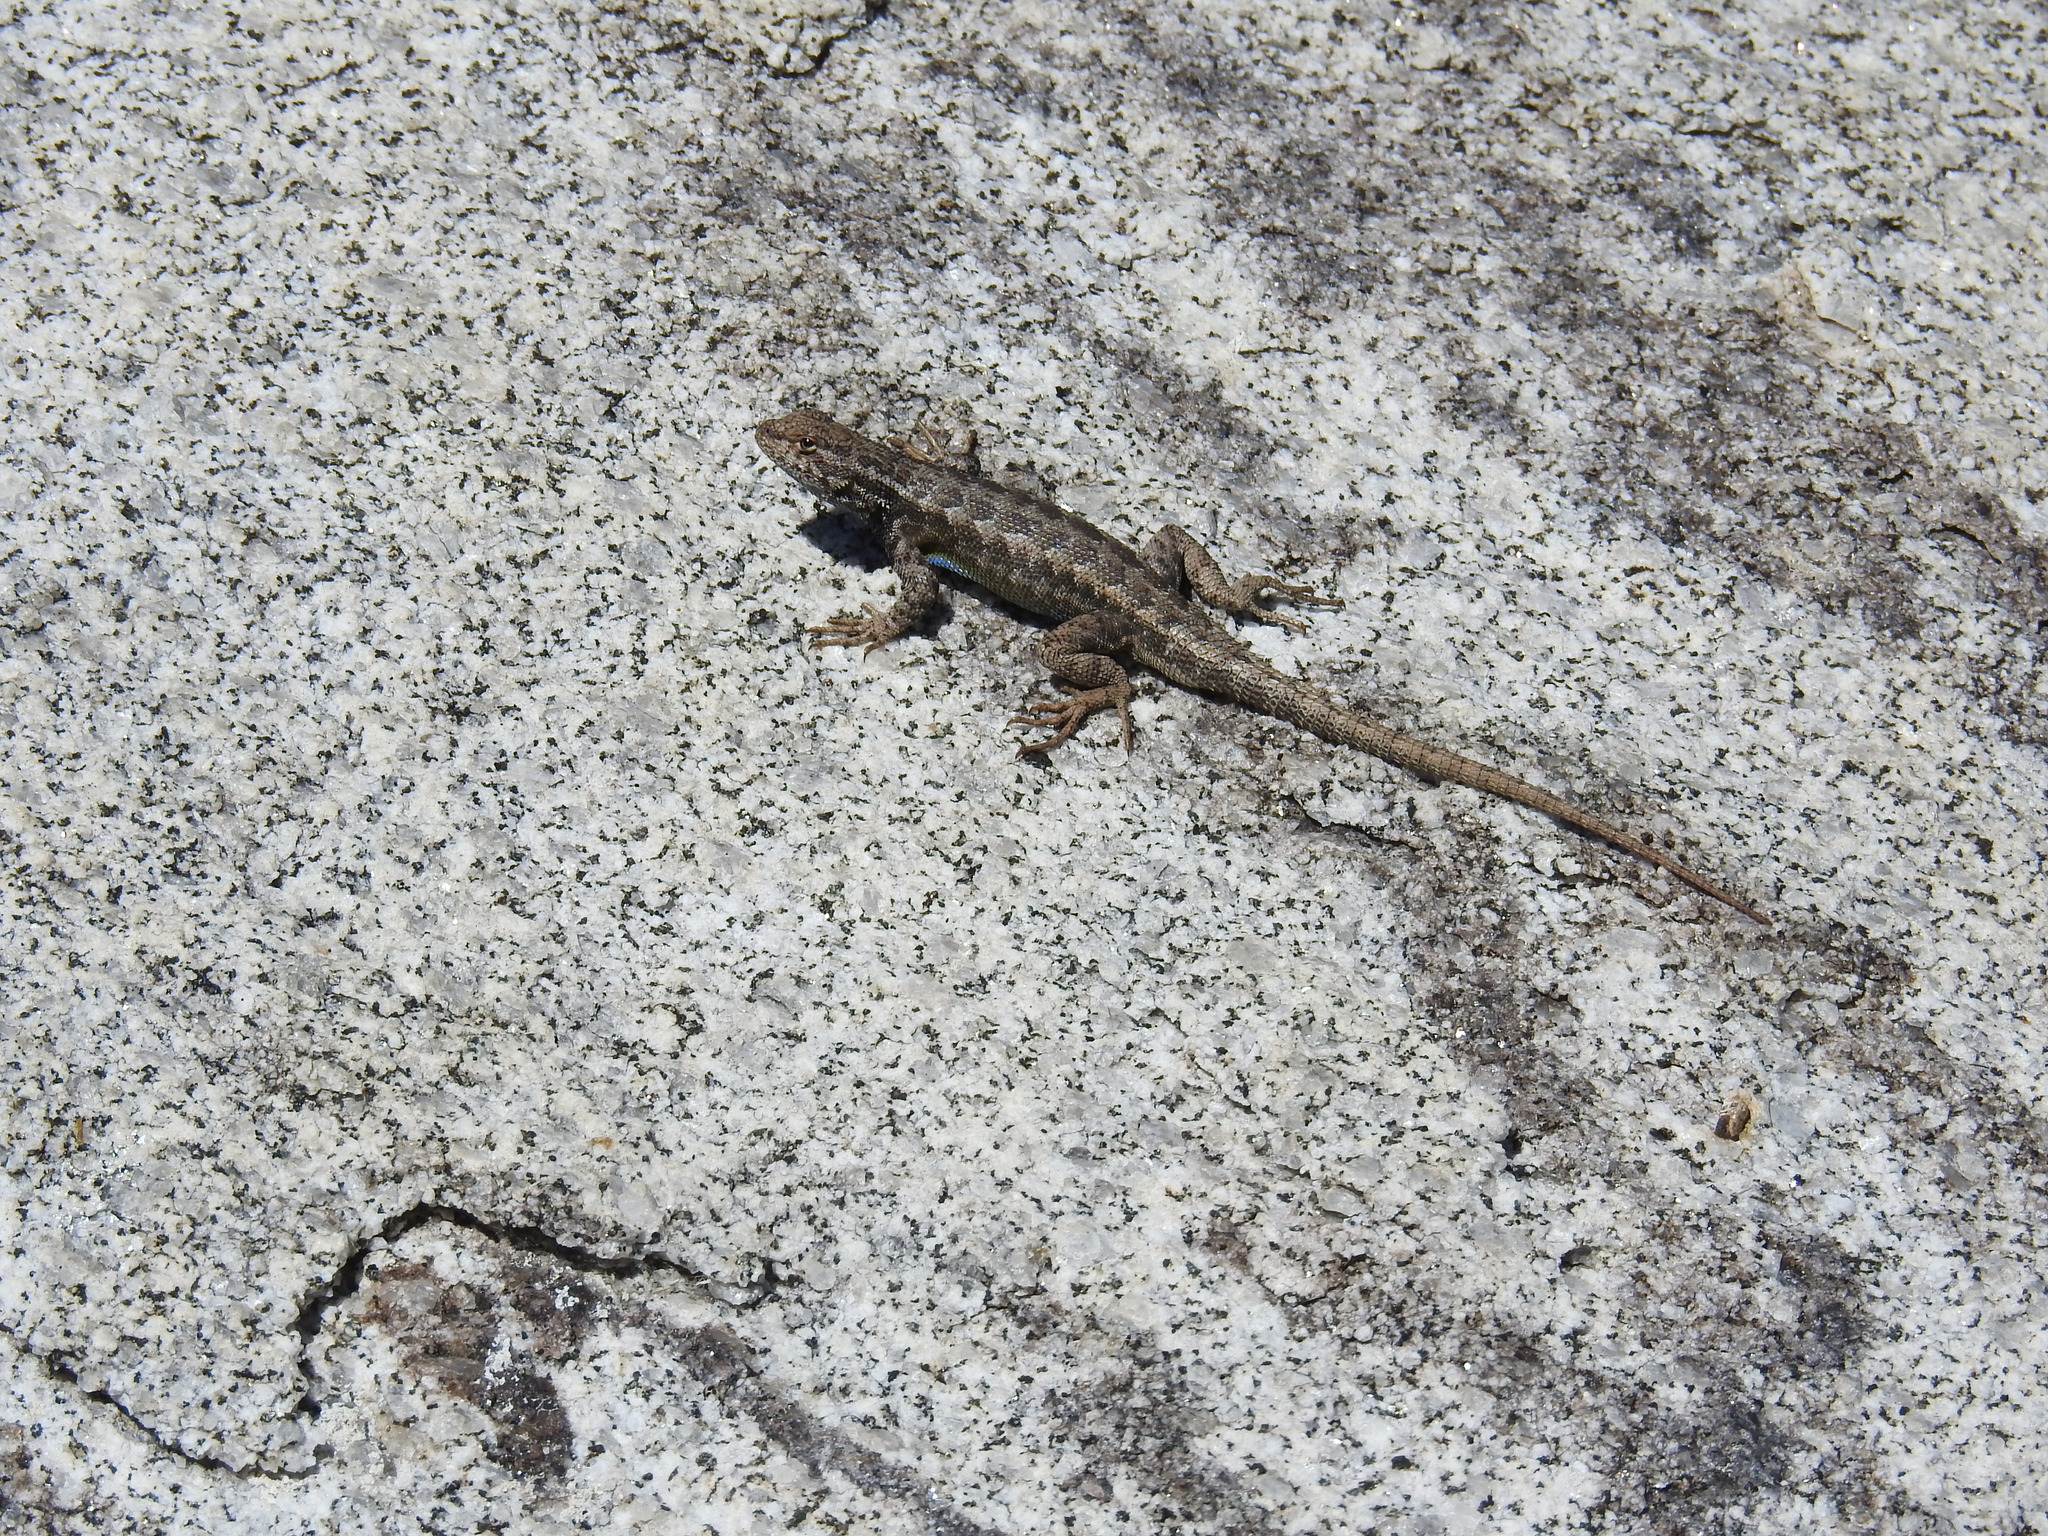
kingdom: Animalia
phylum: Chordata
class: Squamata
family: Phrynosomatidae
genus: Sceloporus
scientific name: Sceloporus graciosus
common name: Sagebrush lizard
